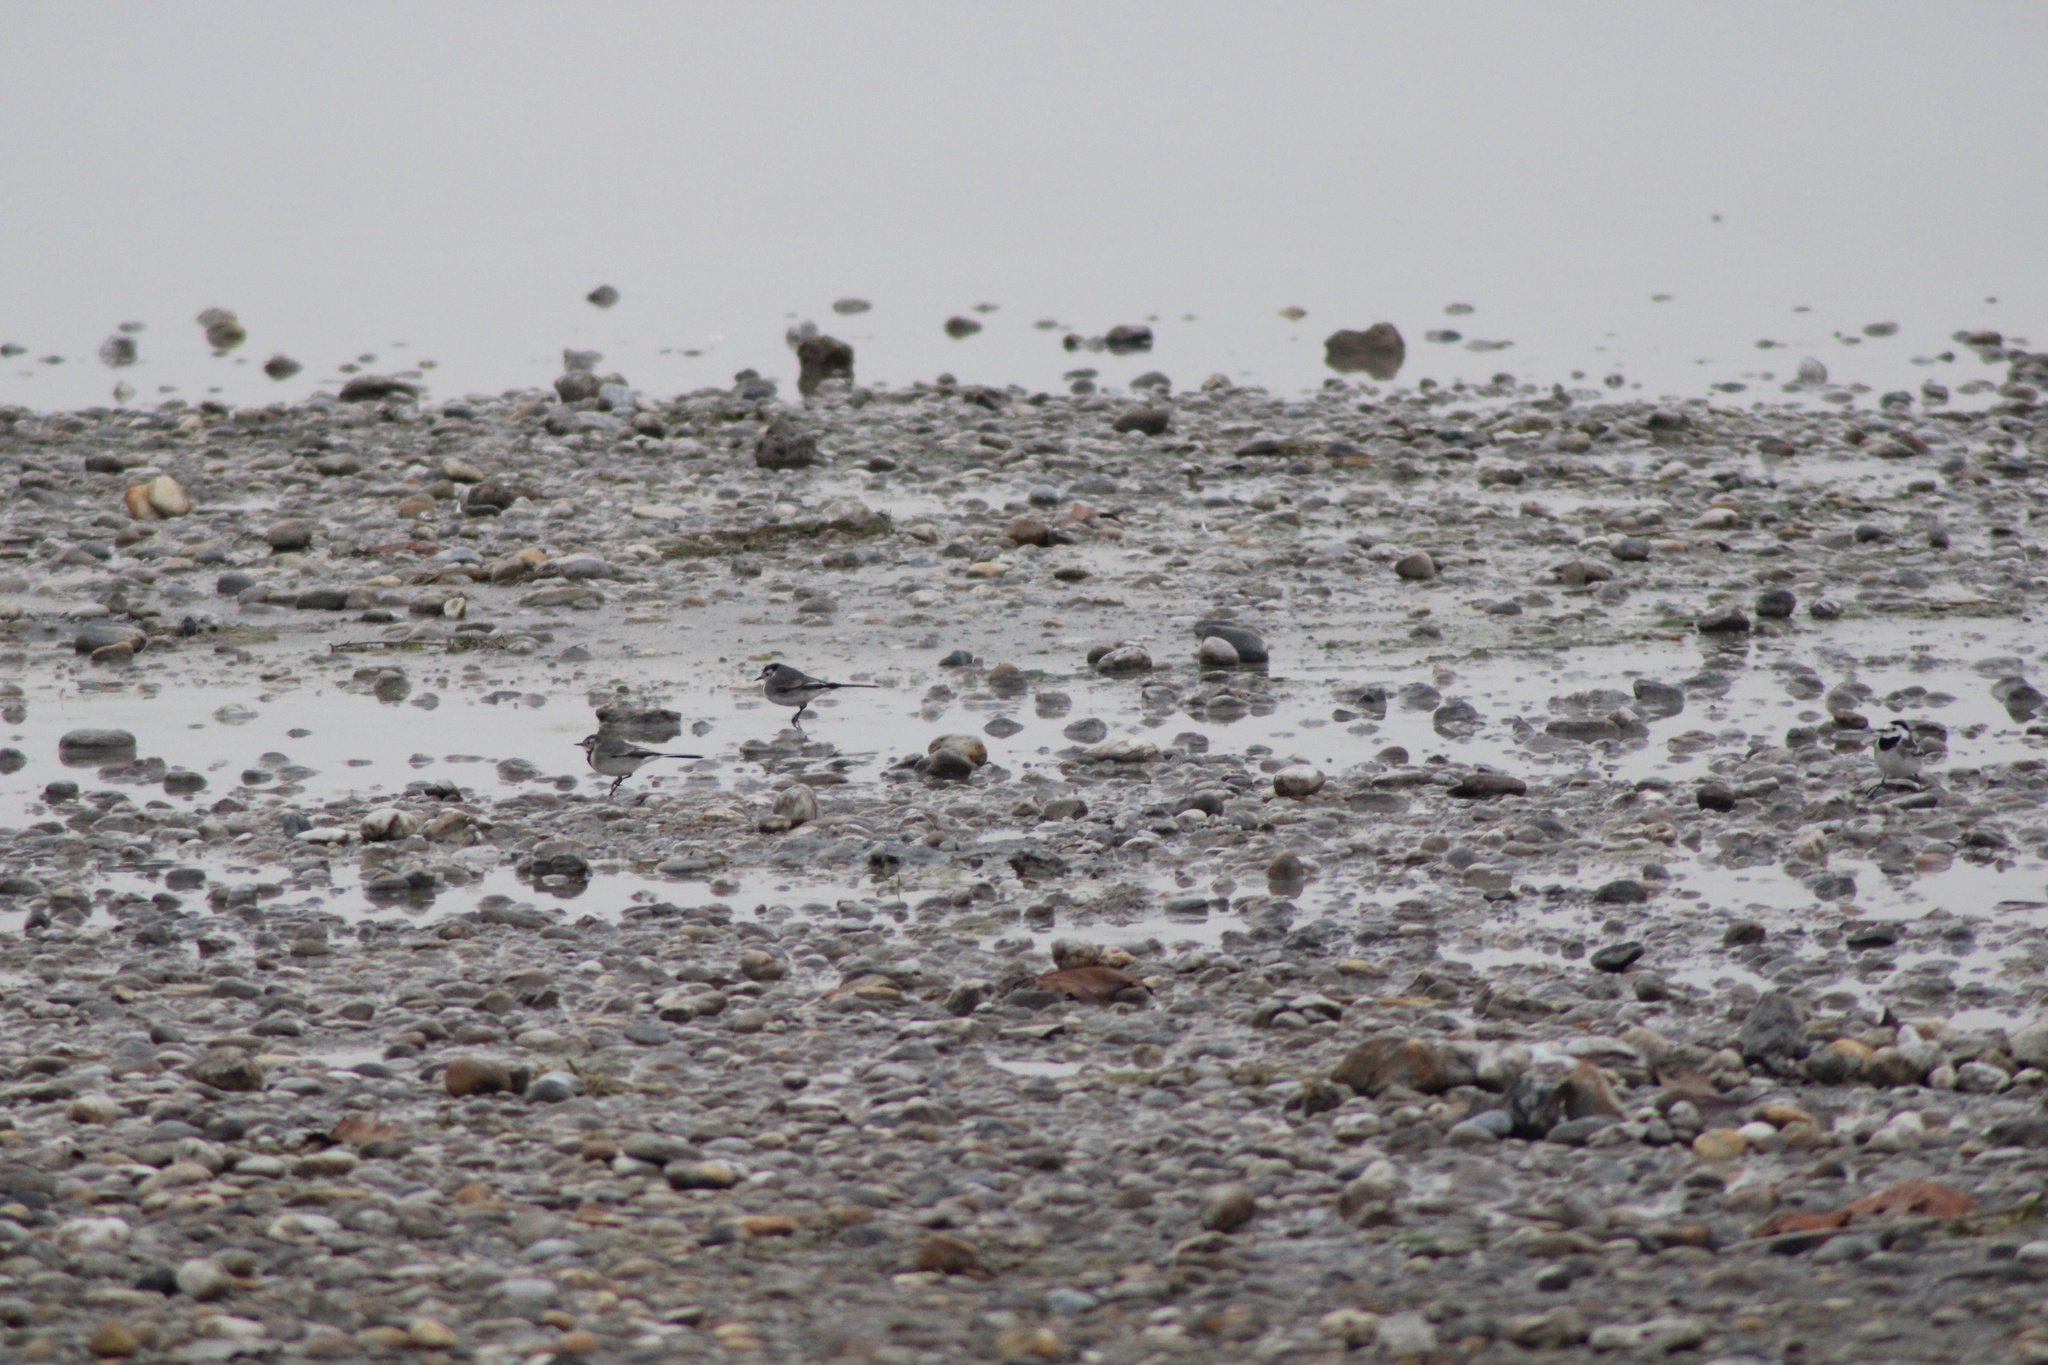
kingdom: Animalia
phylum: Chordata
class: Aves
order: Passeriformes
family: Motacillidae
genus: Motacilla
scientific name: Motacilla alba
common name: White wagtail
